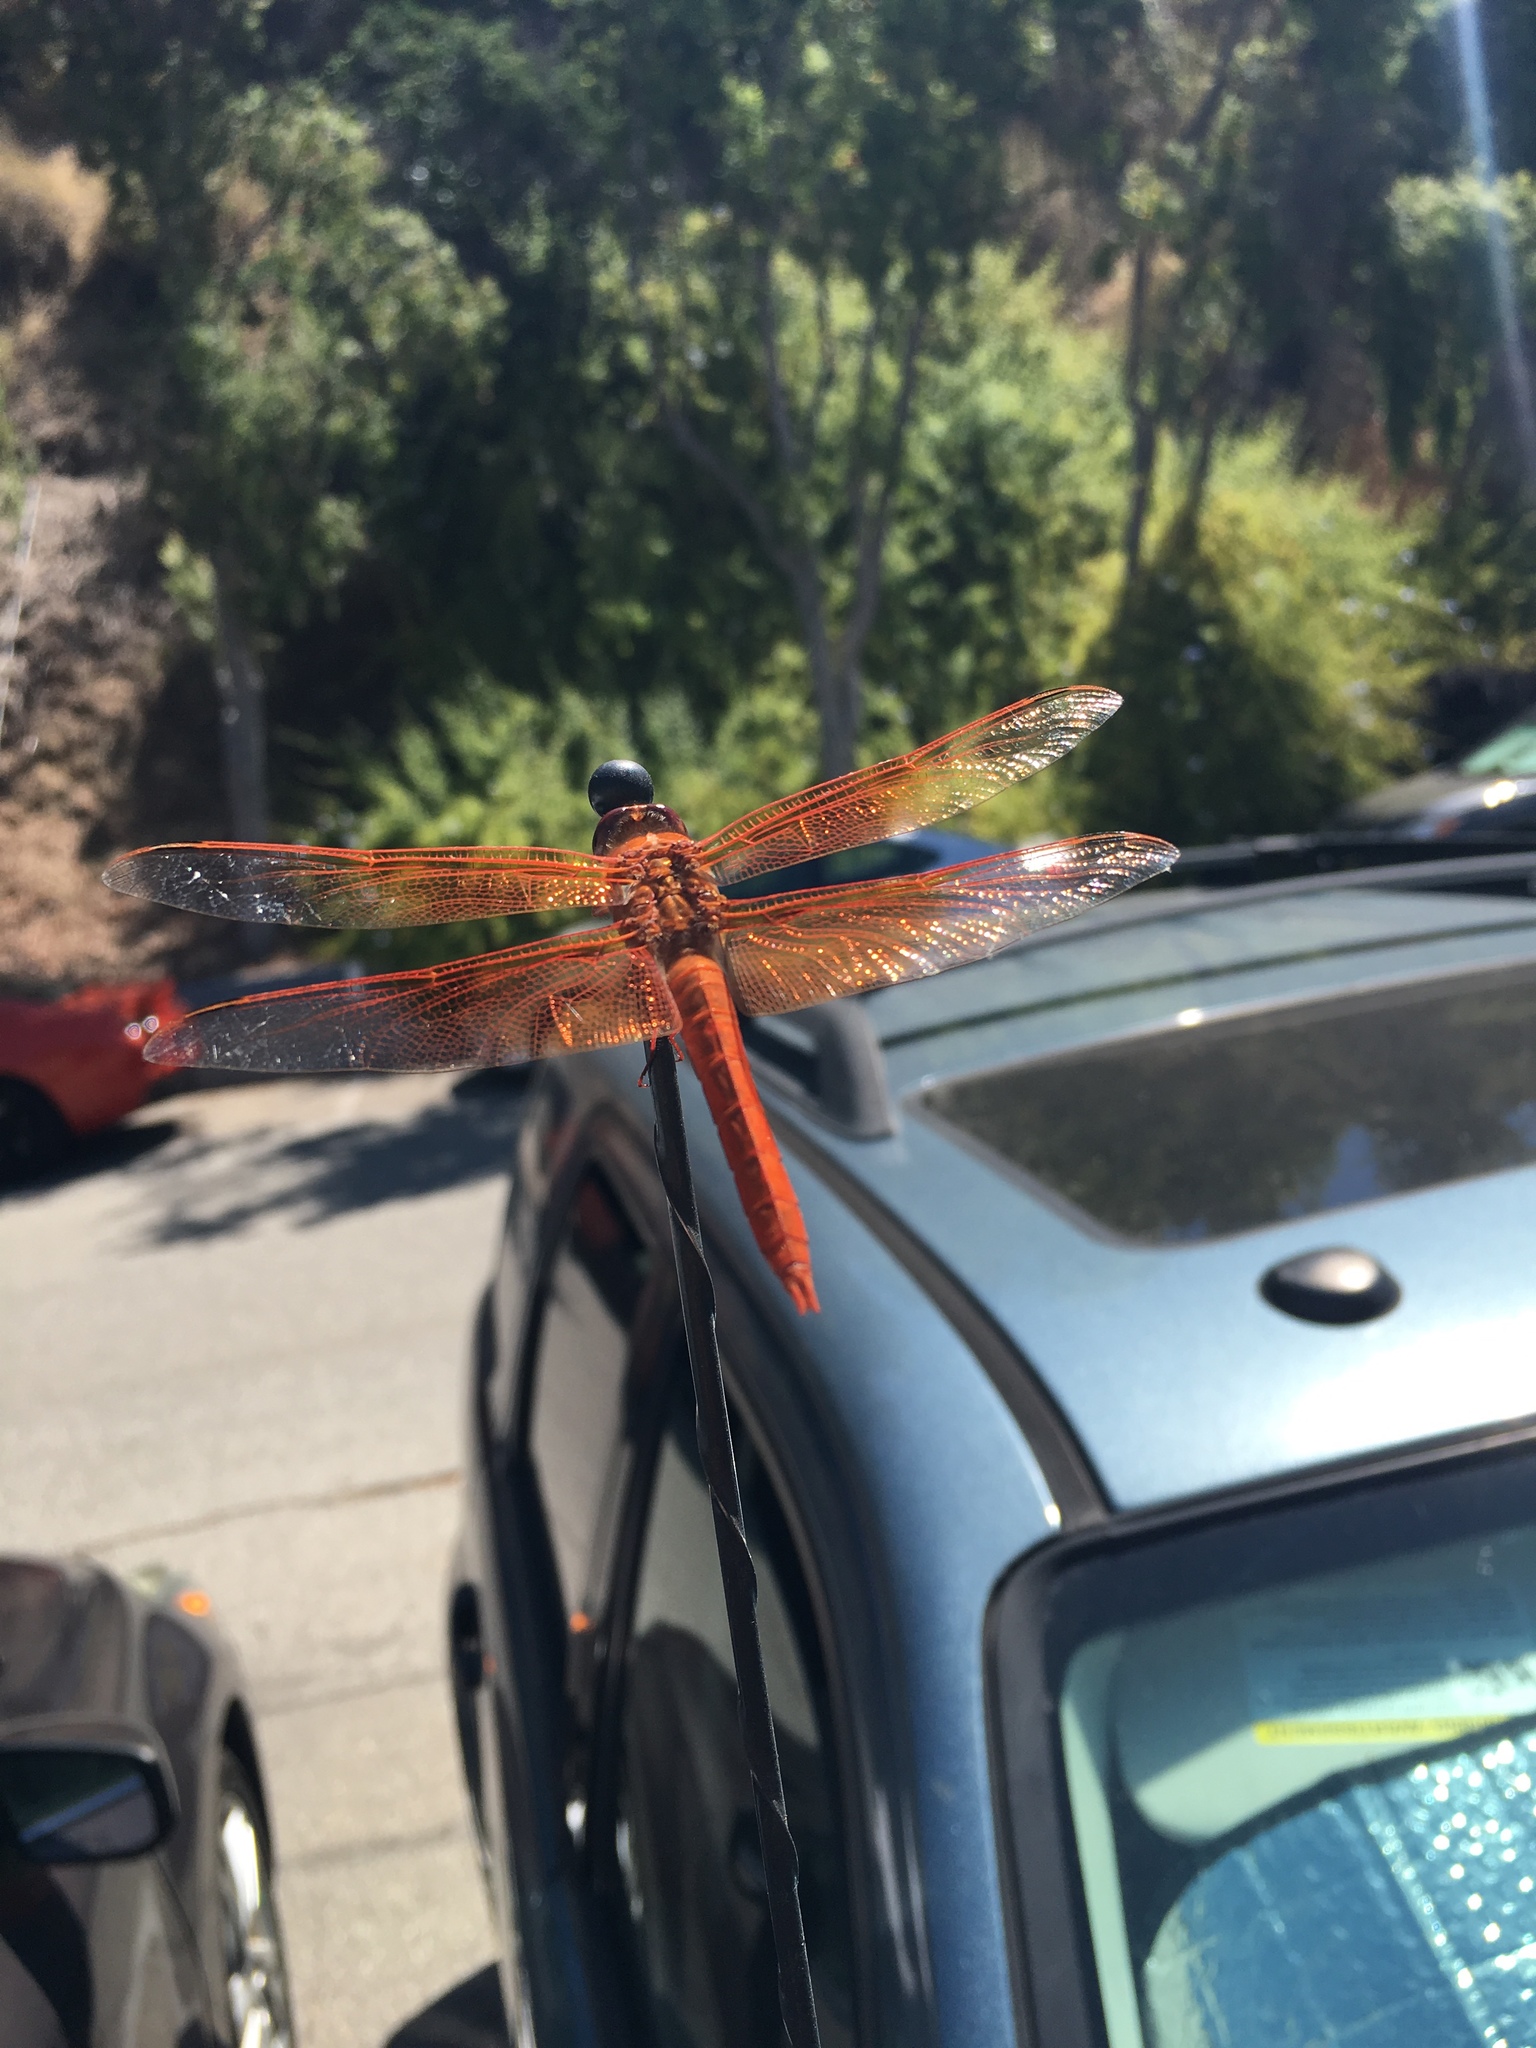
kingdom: Animalia
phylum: Arthropoda
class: Insecta
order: Odonata
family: Libellulidae
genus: Libellula
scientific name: Libellula saturata
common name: Flame skimmer
